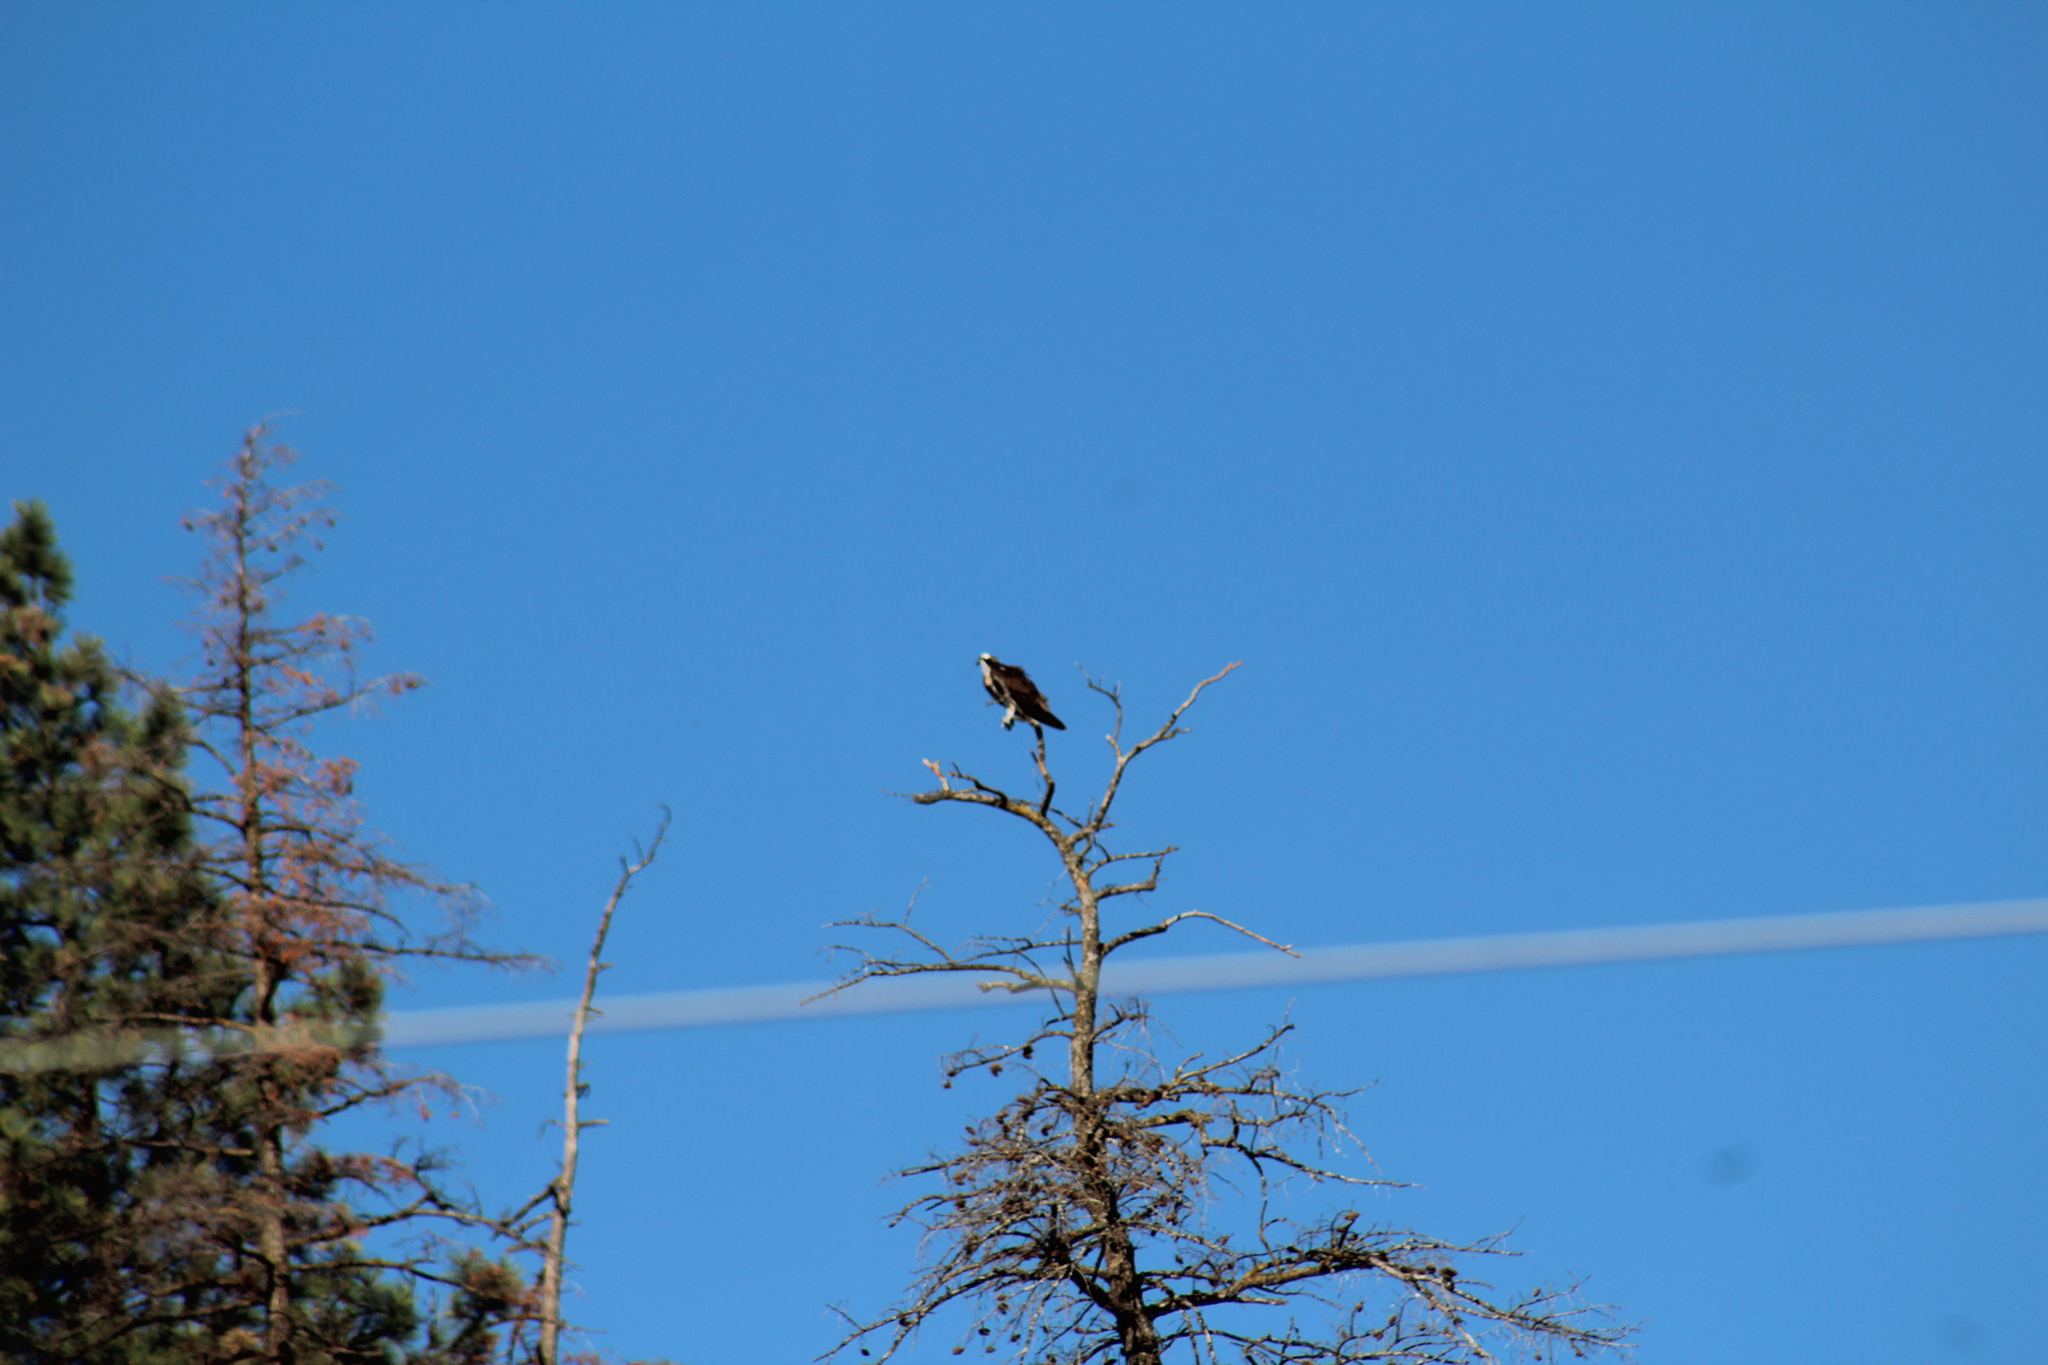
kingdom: Animalia
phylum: Chordata
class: Aves
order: Accipitriformes
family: Pandionidae
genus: Pandion
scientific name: Pandion haliaetus
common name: Osprey
